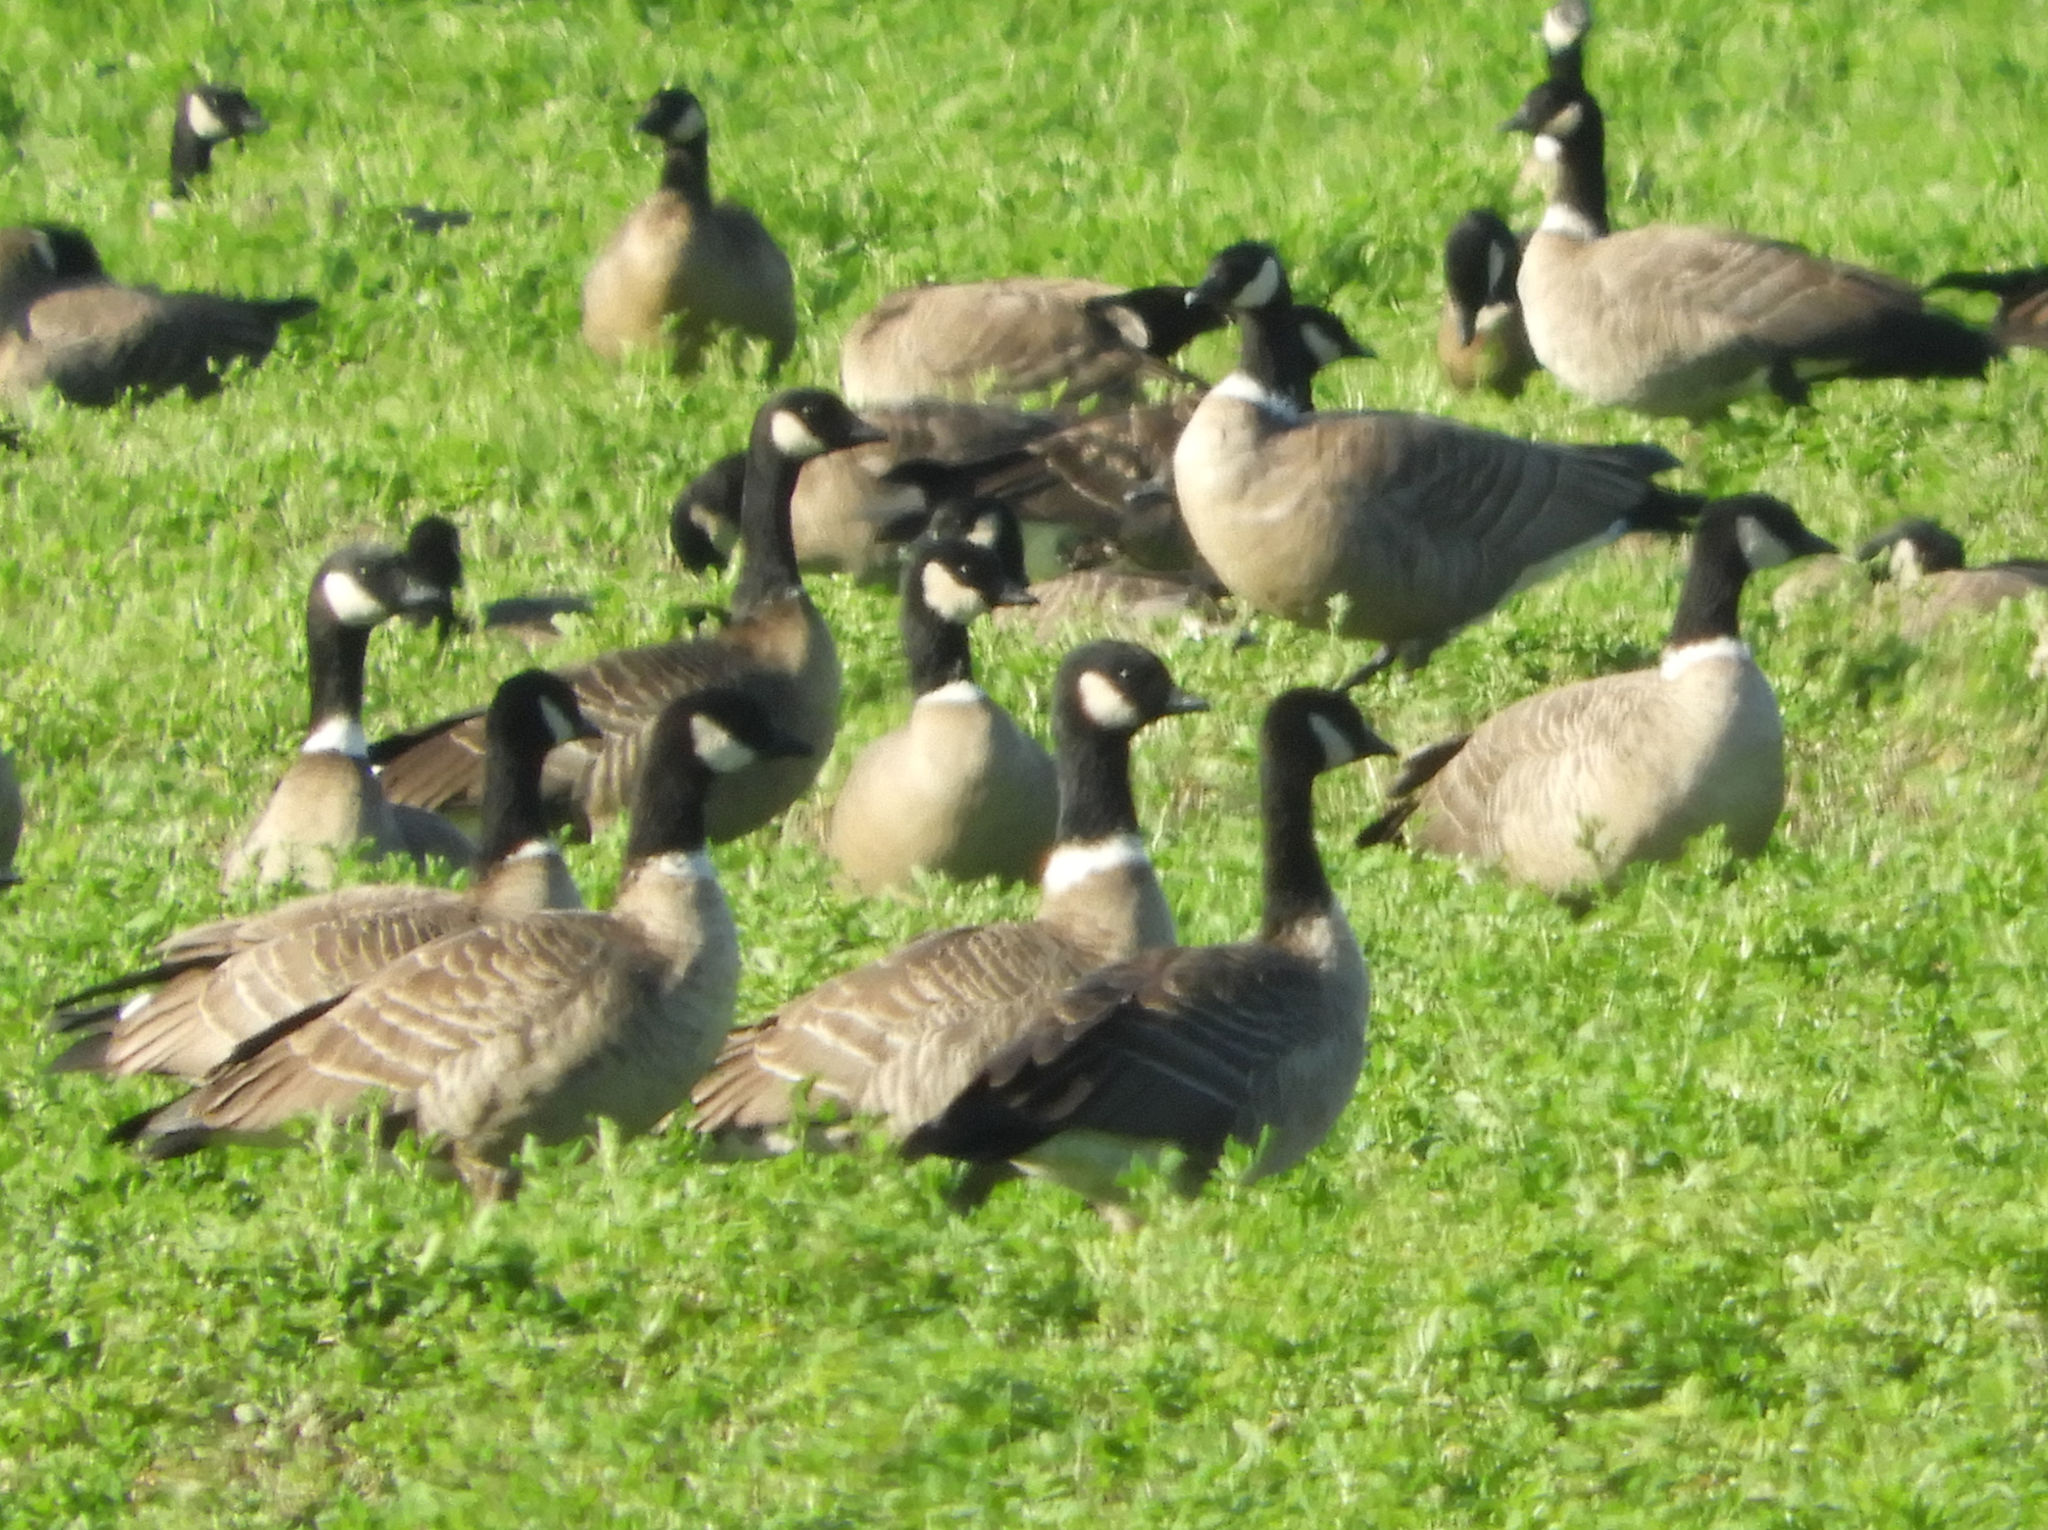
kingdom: Animalia
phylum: Chordata
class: Aves
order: Anseriformes
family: Anatidae
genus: Branta
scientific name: Branta hutchinsii
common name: Cackling goose
